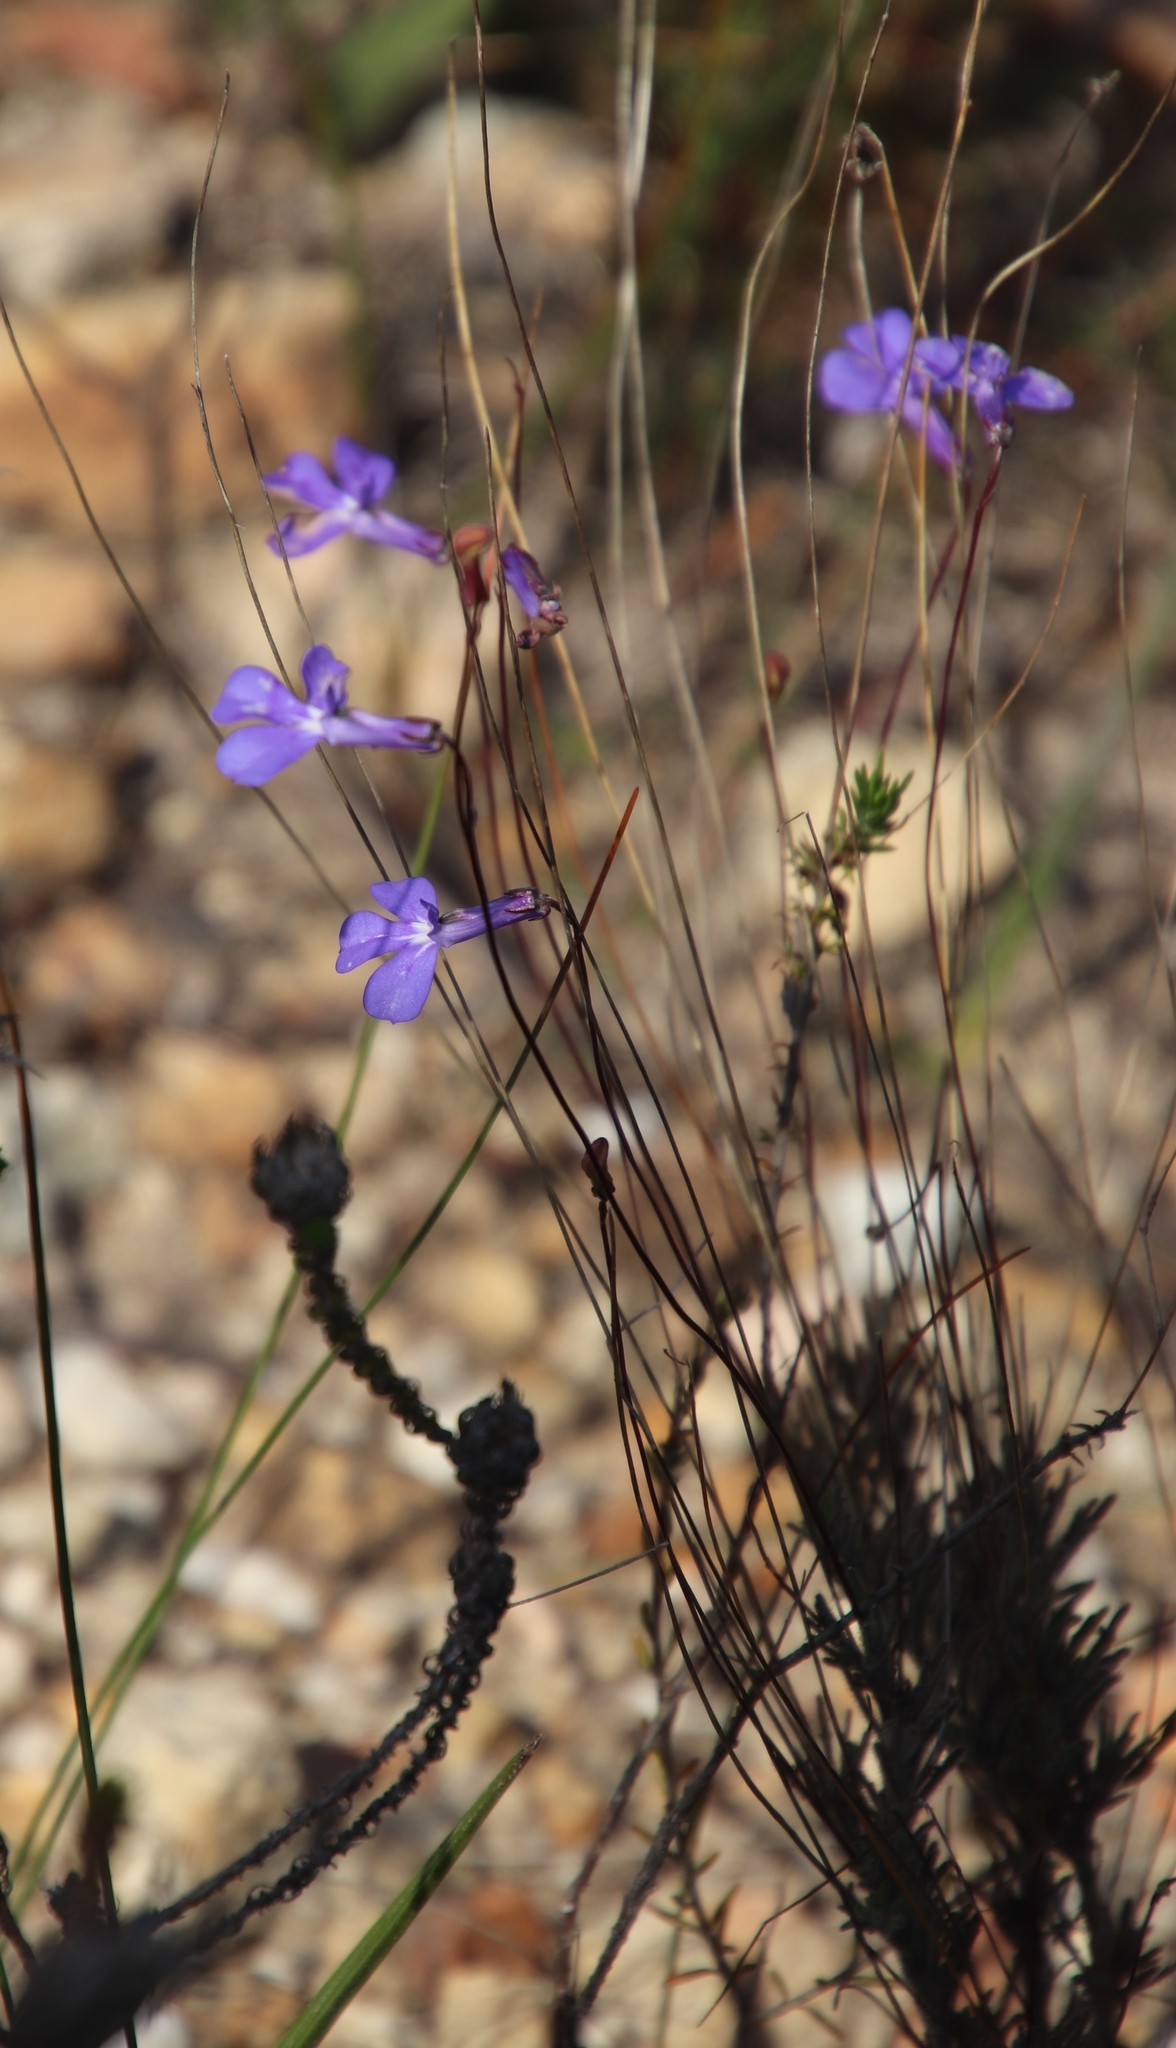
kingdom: Plantae
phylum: Tracheophyta
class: Magnoliopsida
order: Asterales
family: Campanulaceae
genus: Lobelia
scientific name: Lobelia chamaepitys
